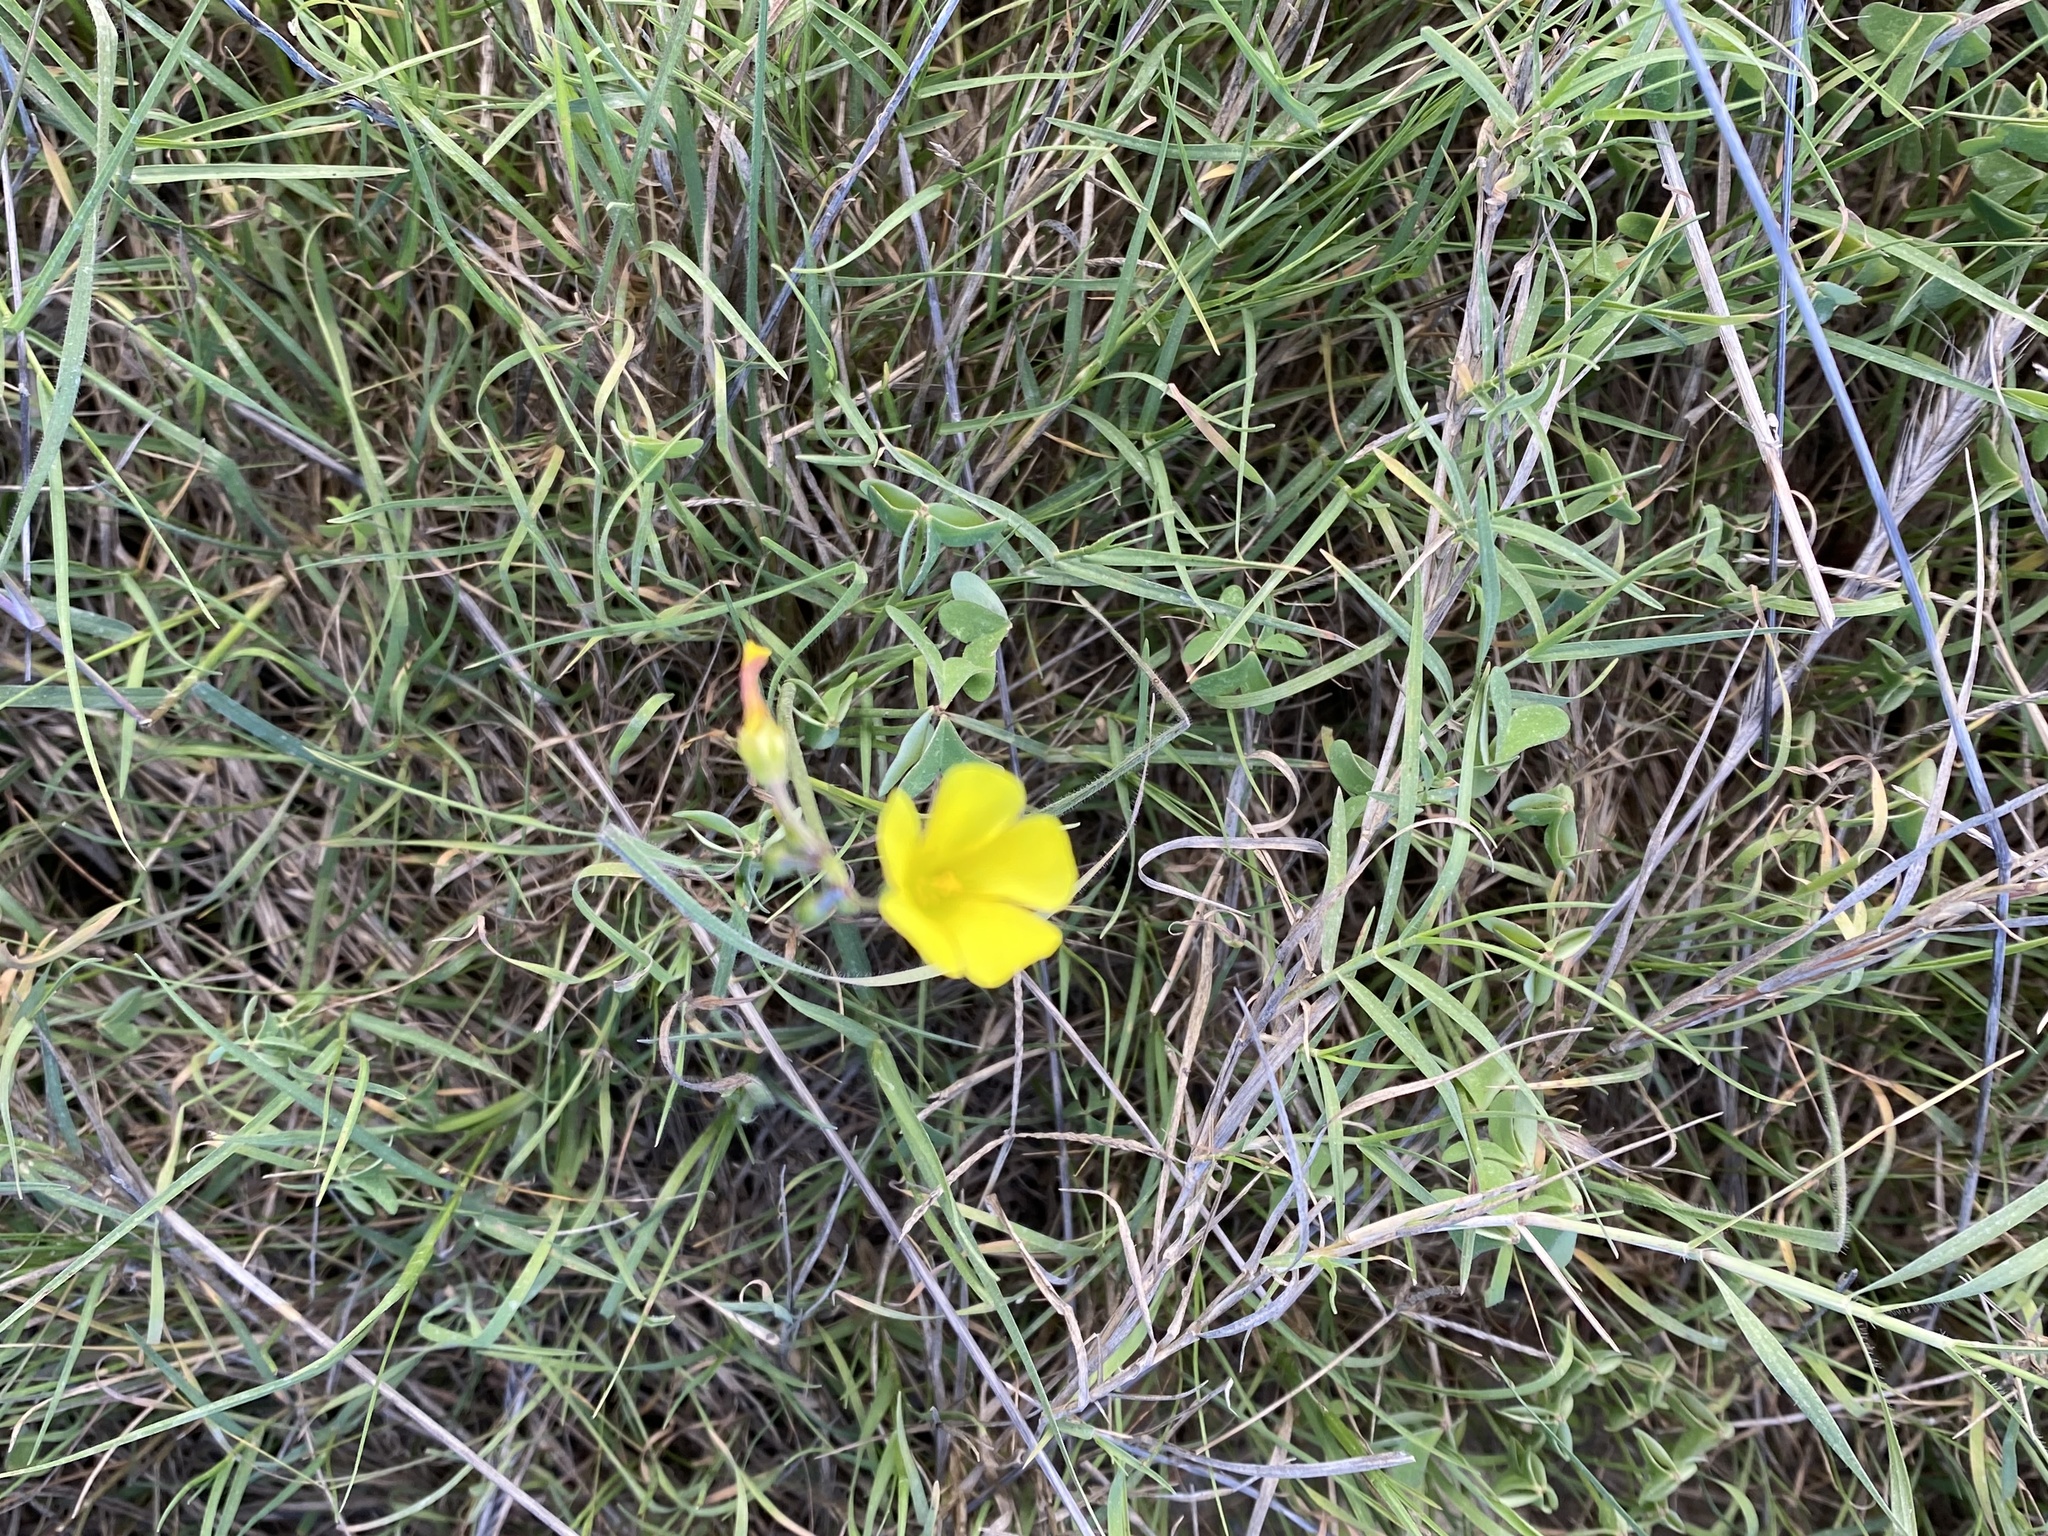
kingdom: Plantae
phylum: Tracheophyta
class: Magnoliopsida
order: Oxalidales
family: Oxalidaceae
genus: Oxalis
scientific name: Oxalis pes-caprae
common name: Bermuda-buttercup
